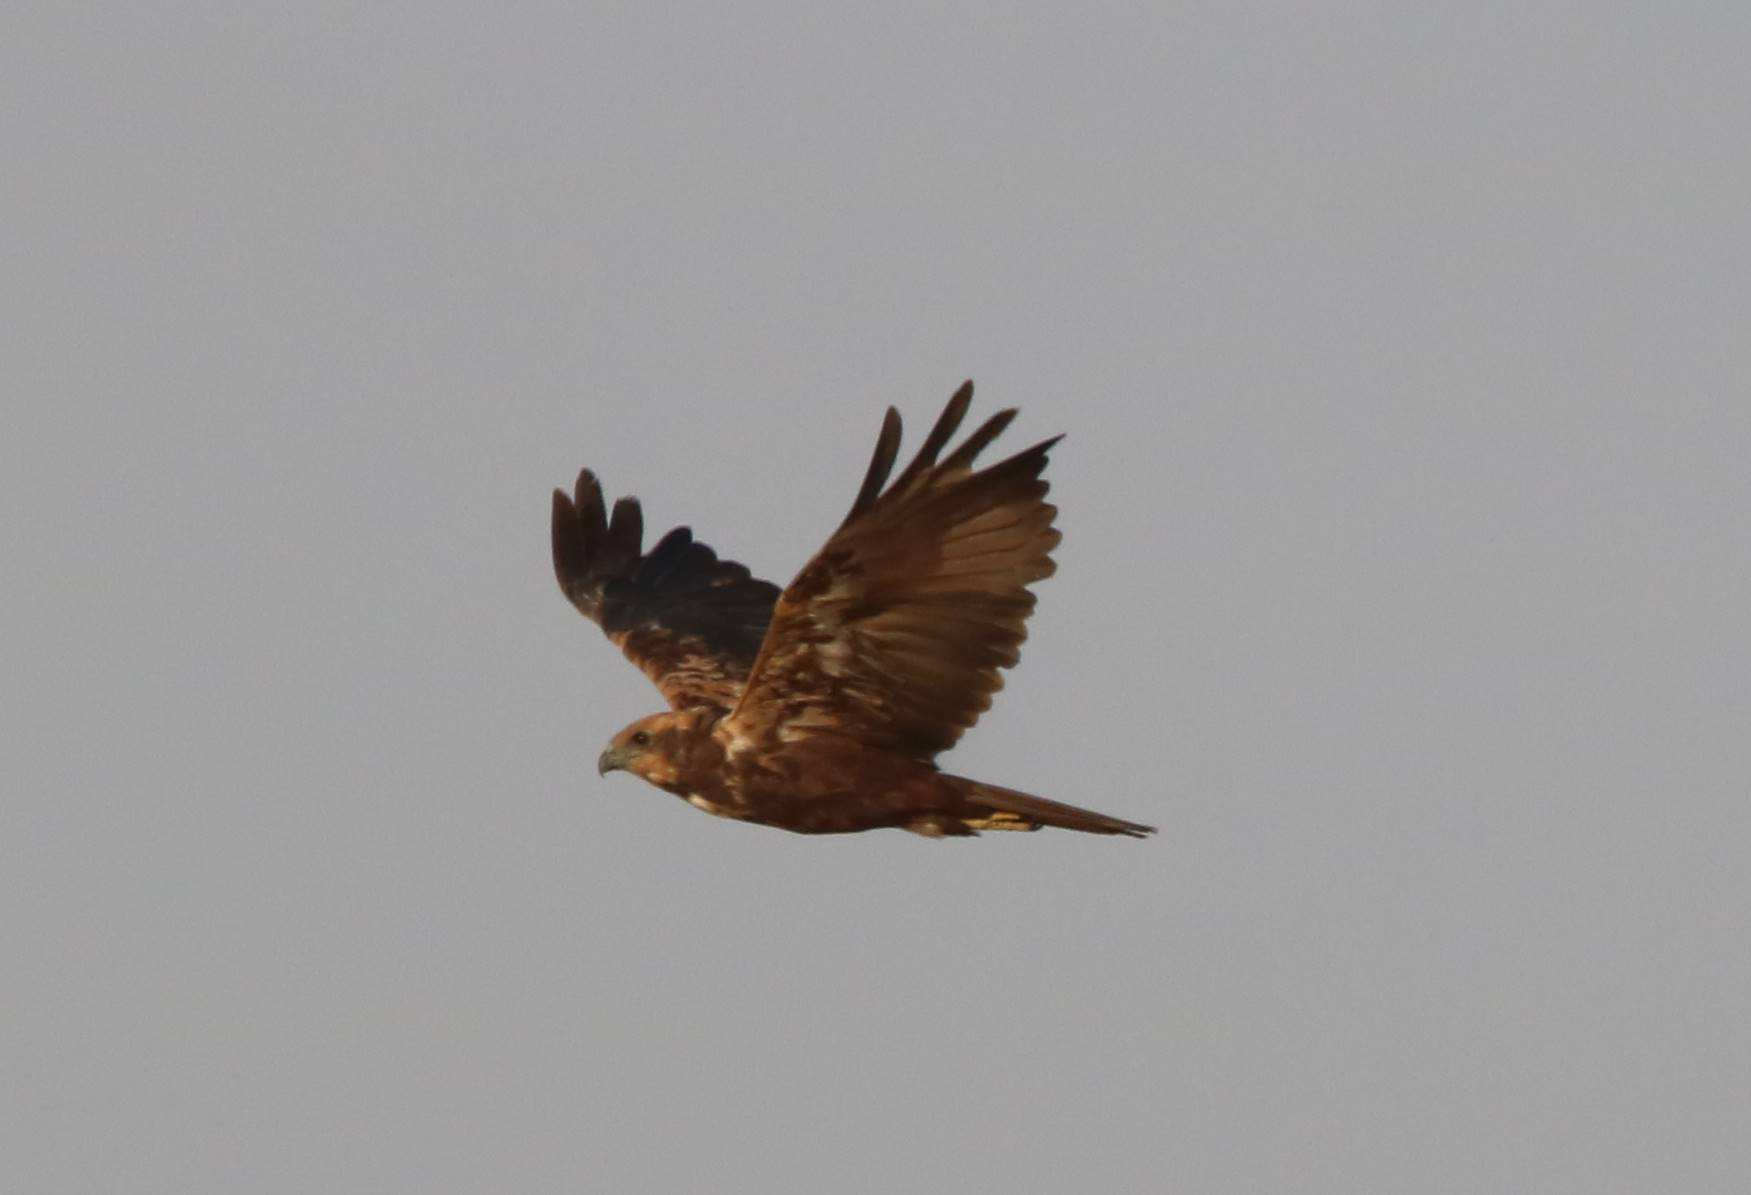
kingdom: Animalia
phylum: Chordata
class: Aves
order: Accipitriformes
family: Accipitridae
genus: Circus
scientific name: Circus aeruginosus
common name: Western marsh harrier
